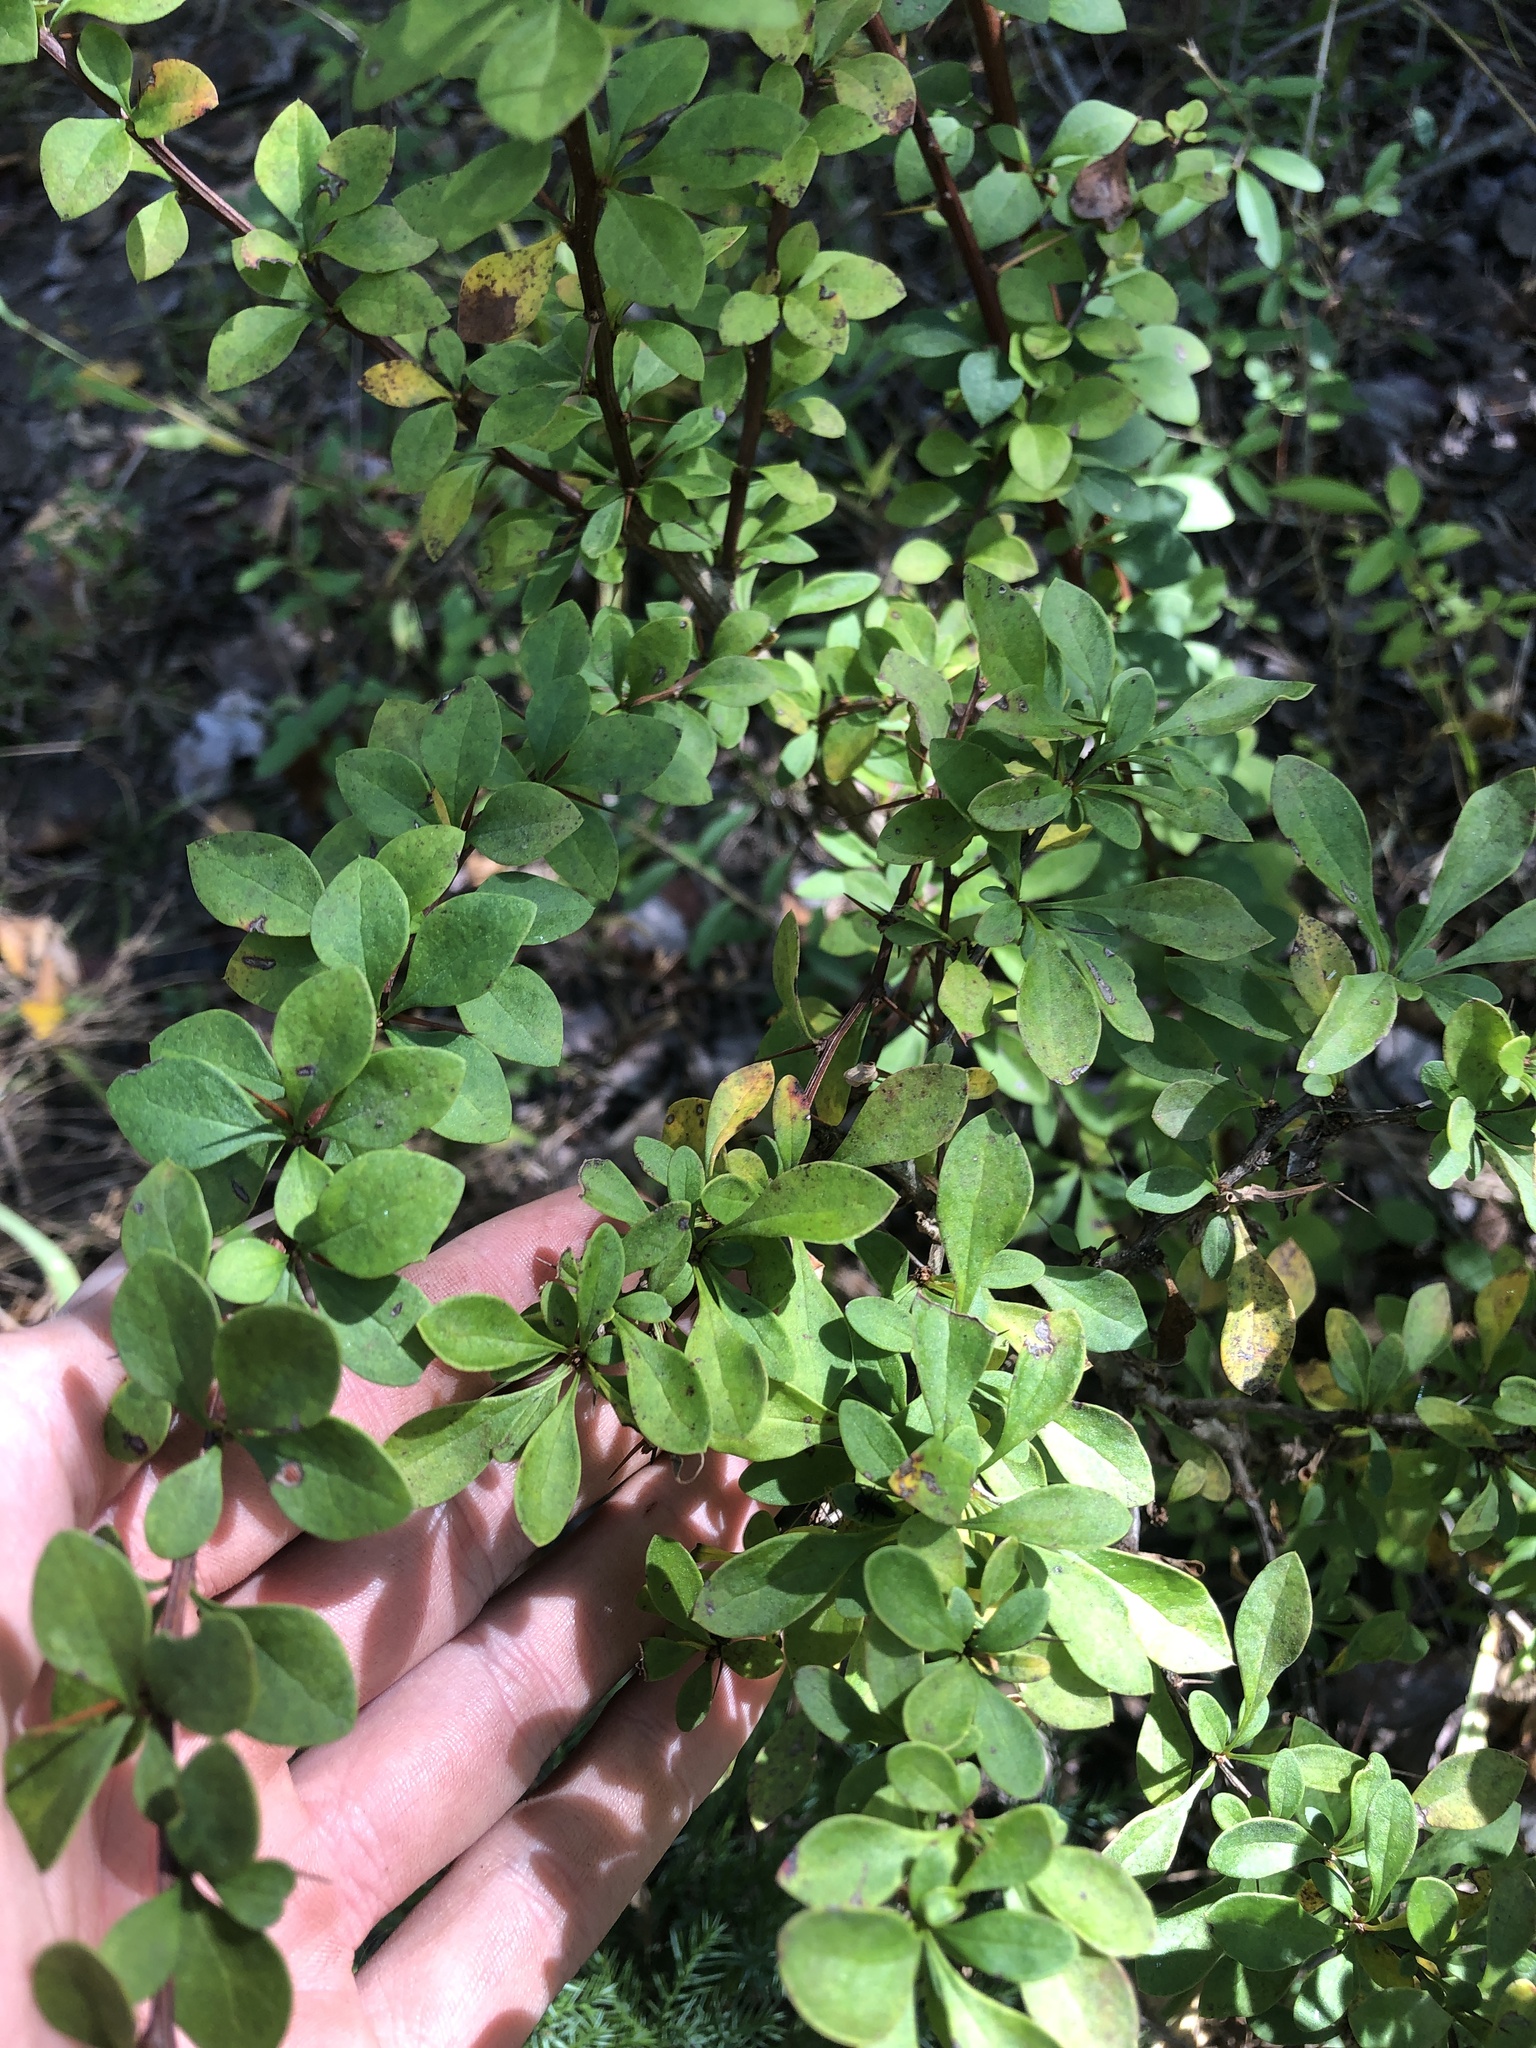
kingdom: Plantae
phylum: Tracheophyta
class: Magnoliopsida
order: Ranunculales
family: Berberidaceae
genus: Berberis
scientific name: Berberis thunbergii
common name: Japanese barberry
